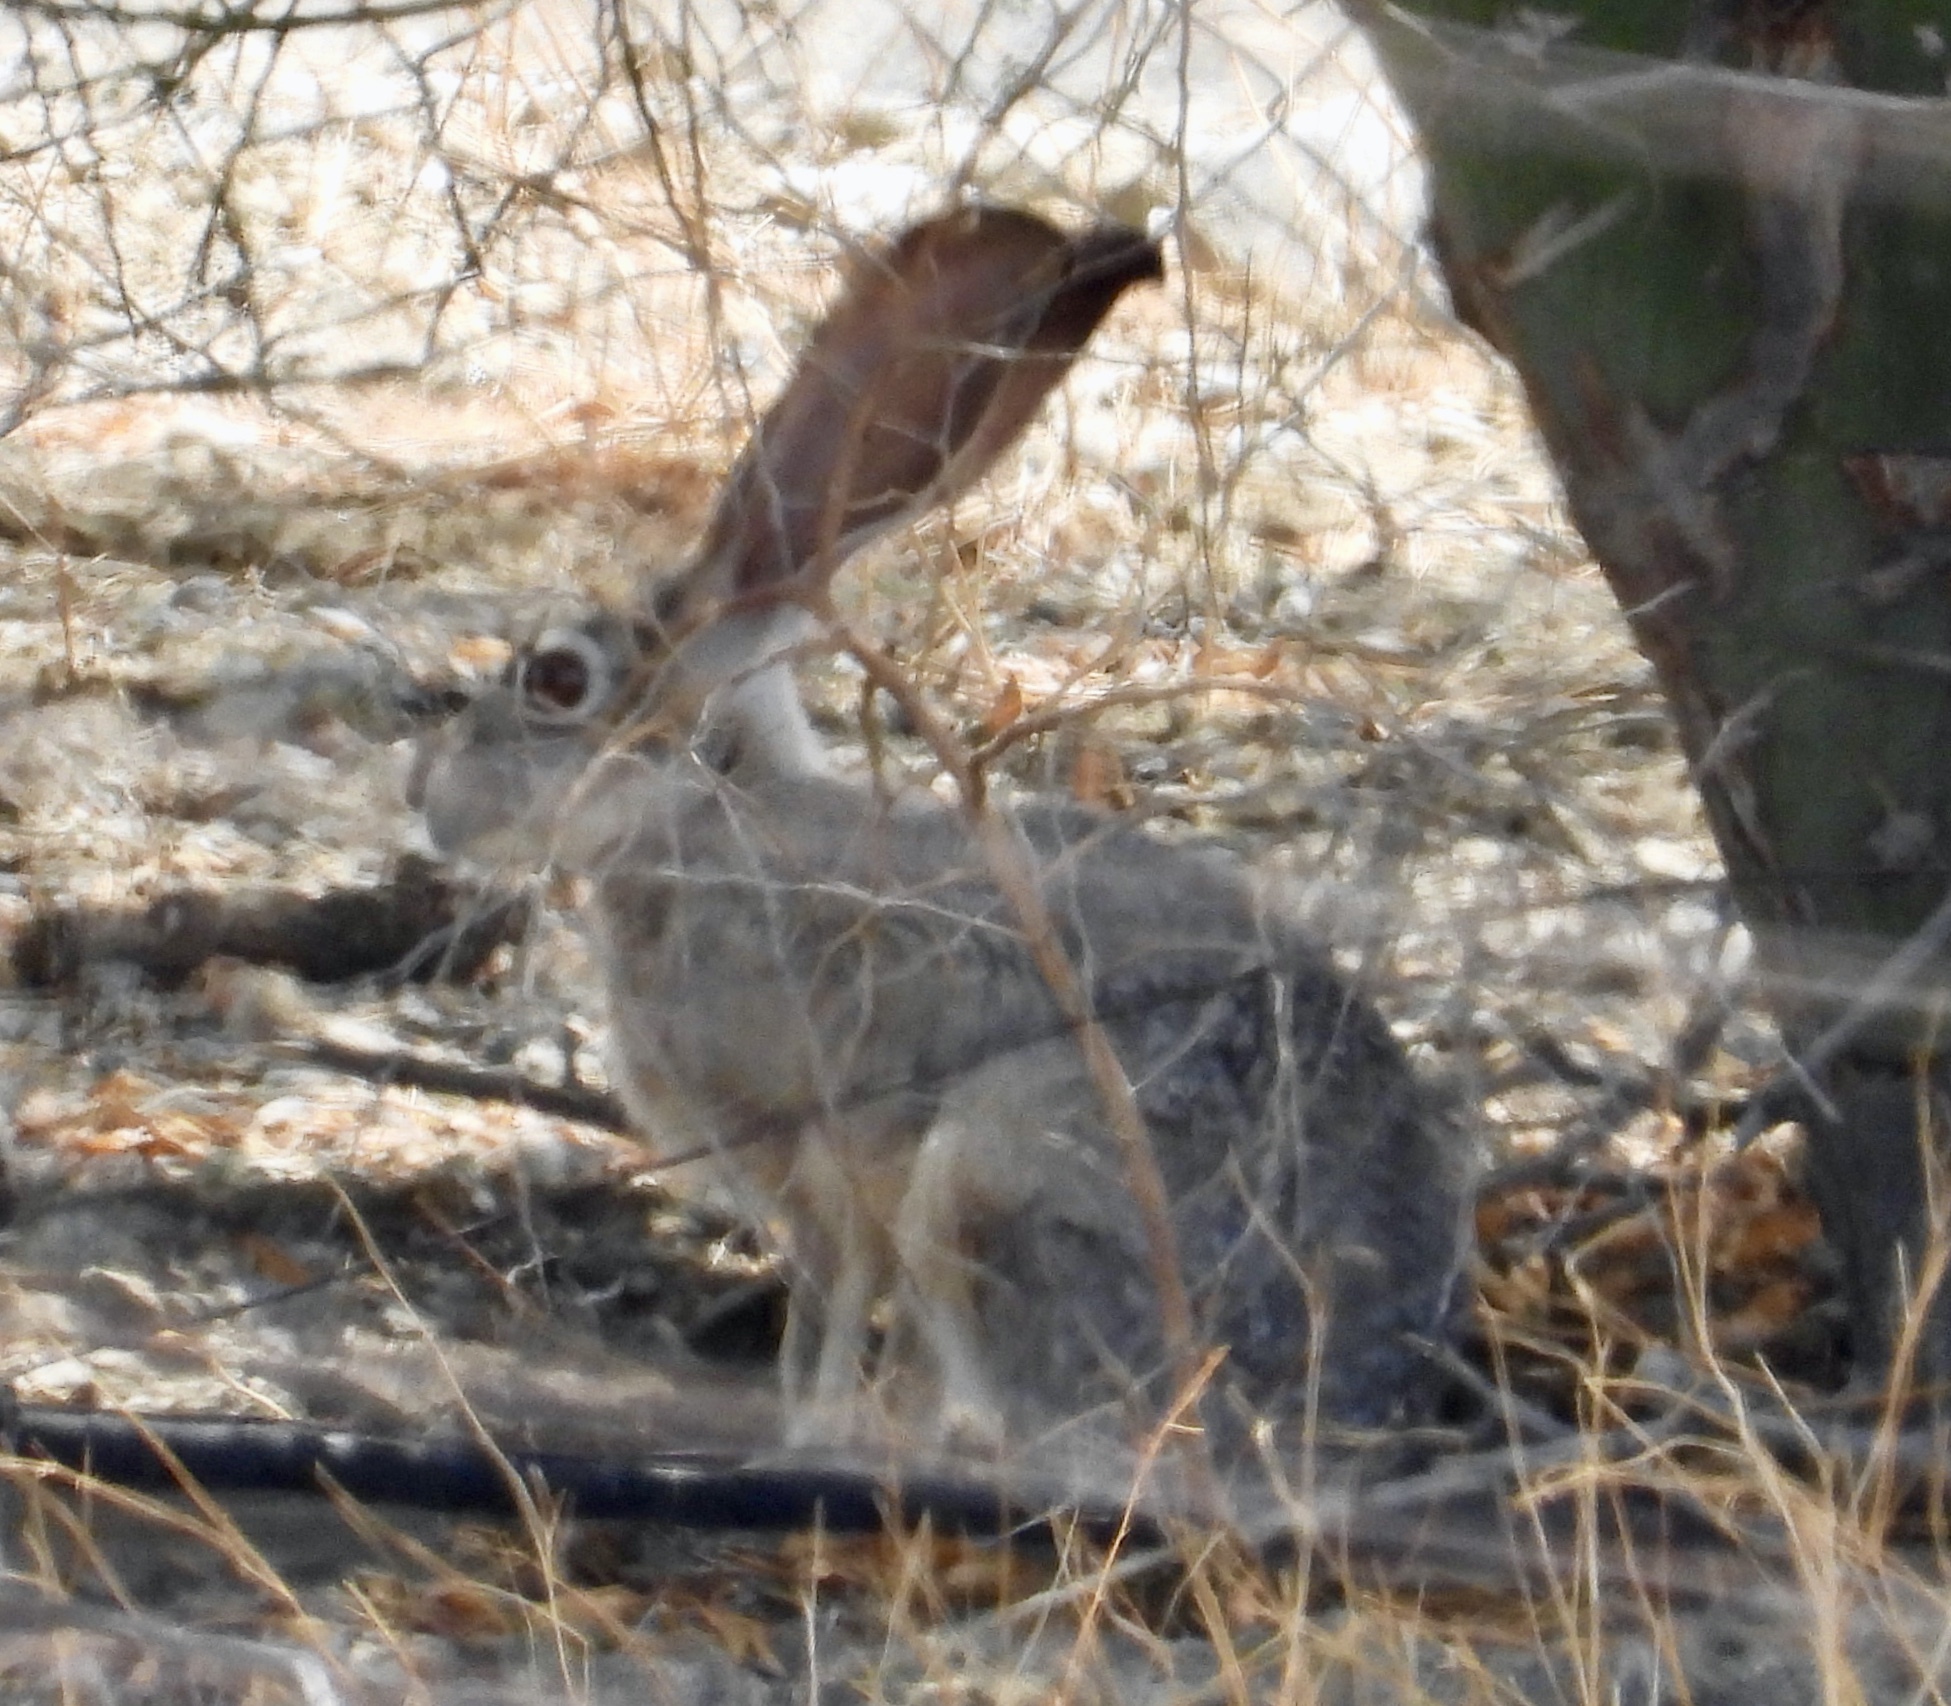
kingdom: Animalia
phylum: Chordata
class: Mammalia
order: Lagomorpha
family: Leporidae
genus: Lepus
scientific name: Lepus californicus
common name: Black-tailed jackrabbit
